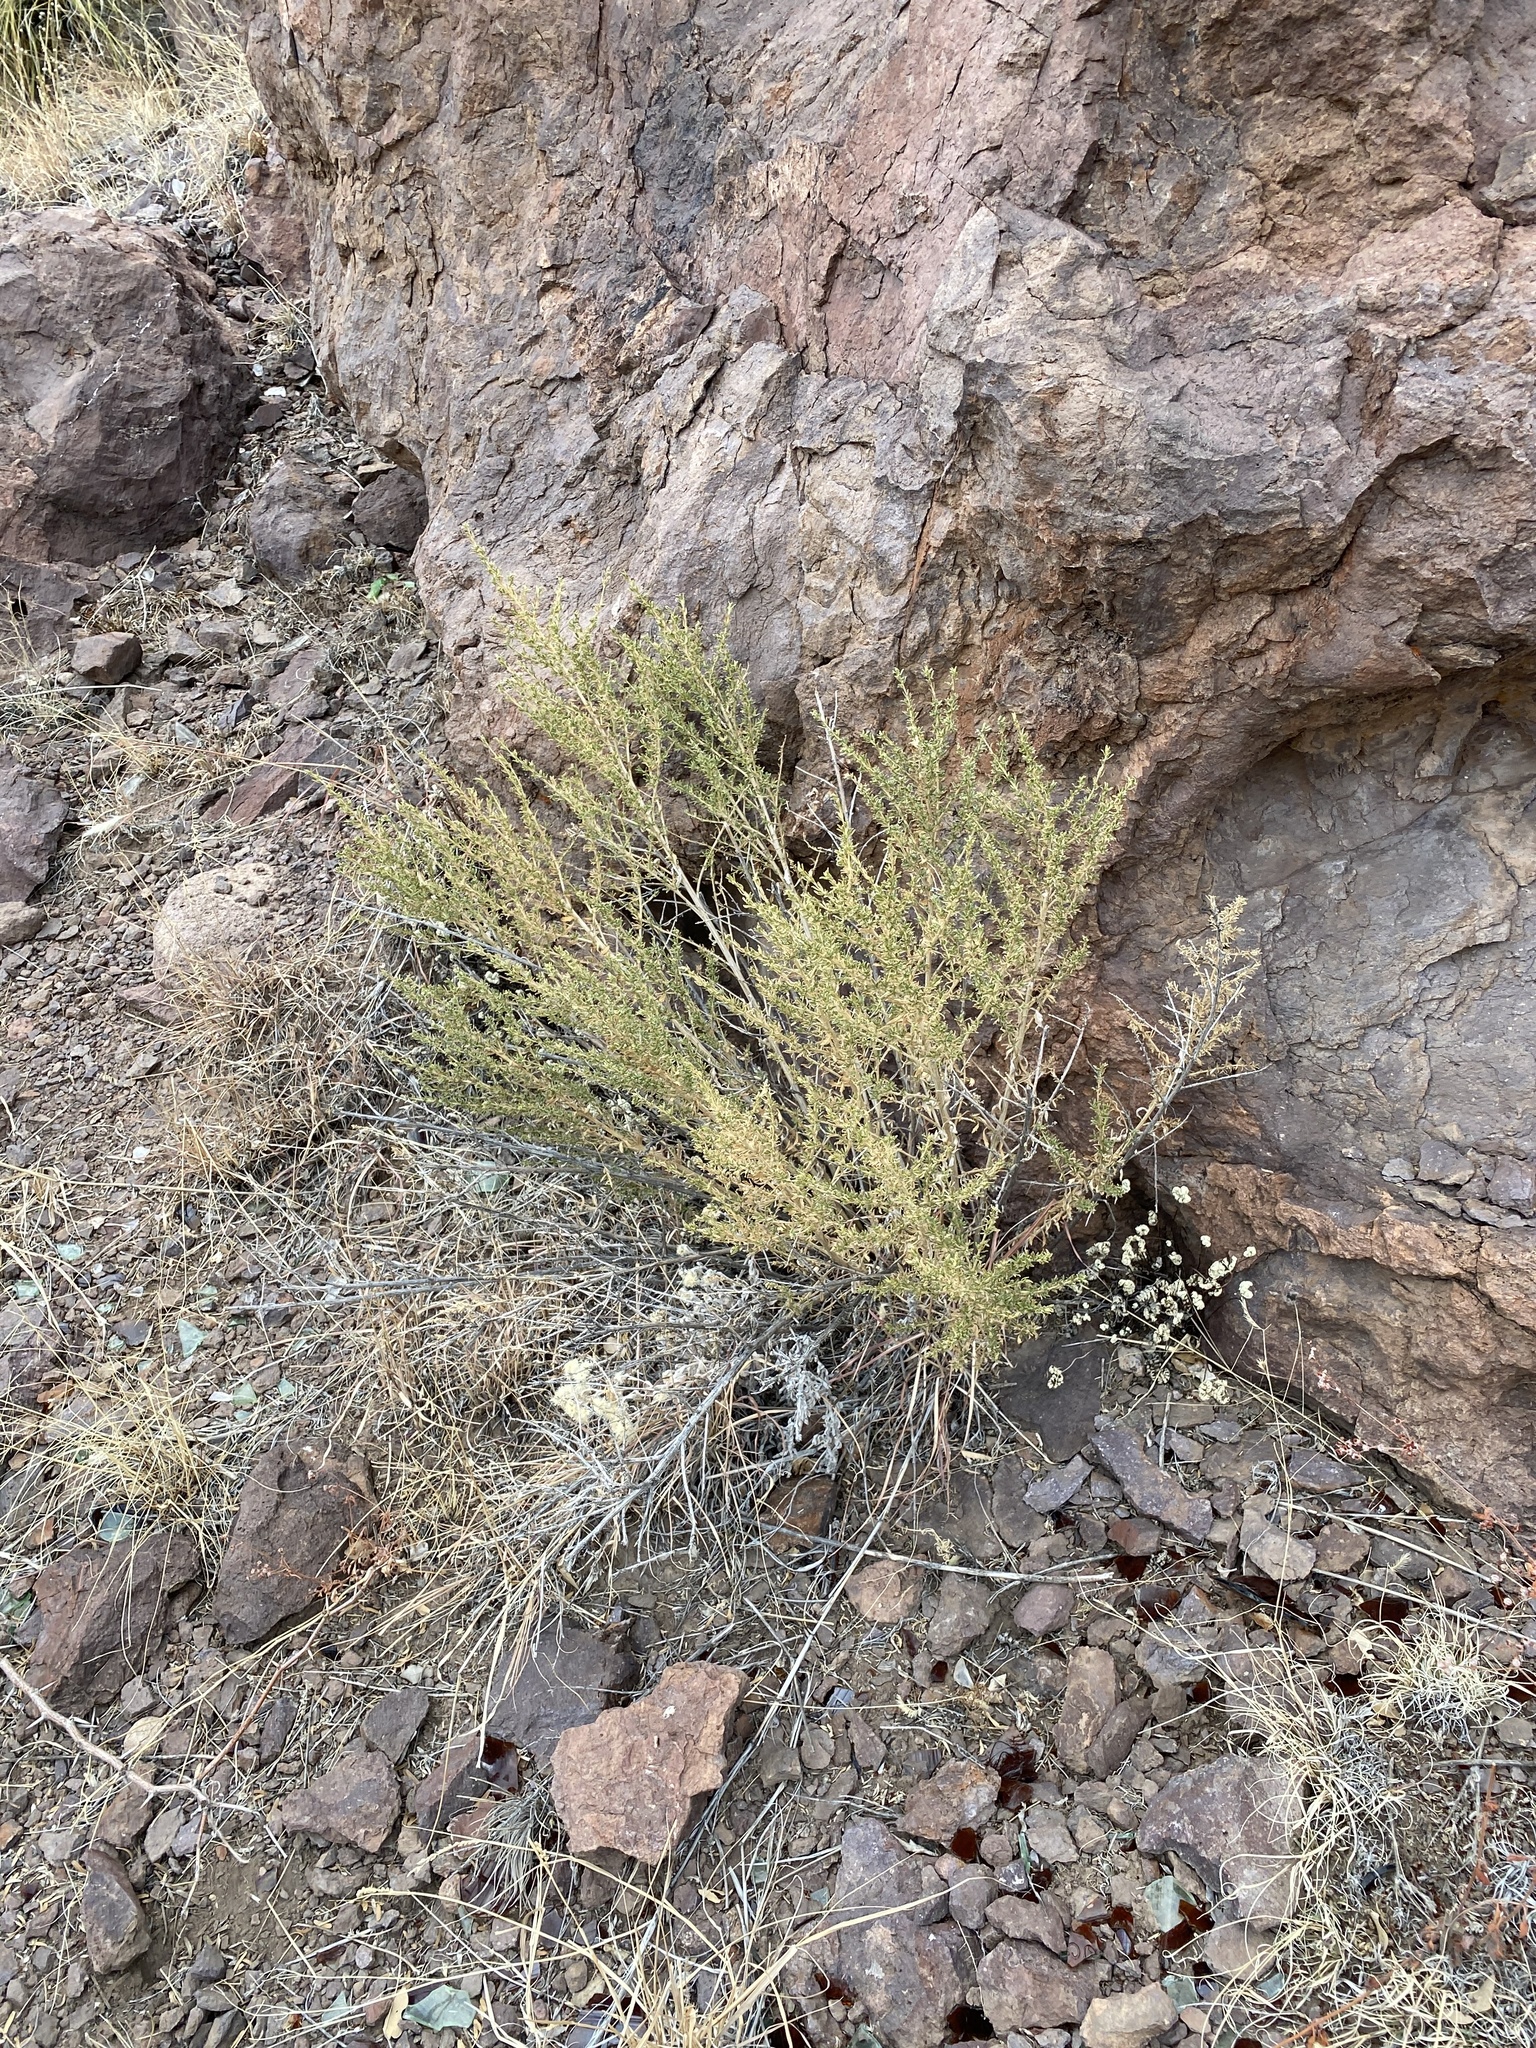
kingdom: Plantae
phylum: Tracheophyta
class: Magnoliopsida
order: Rosales
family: Rosaceae
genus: Fallugia
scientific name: Fallugia paradoxa
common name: Apache-plume
